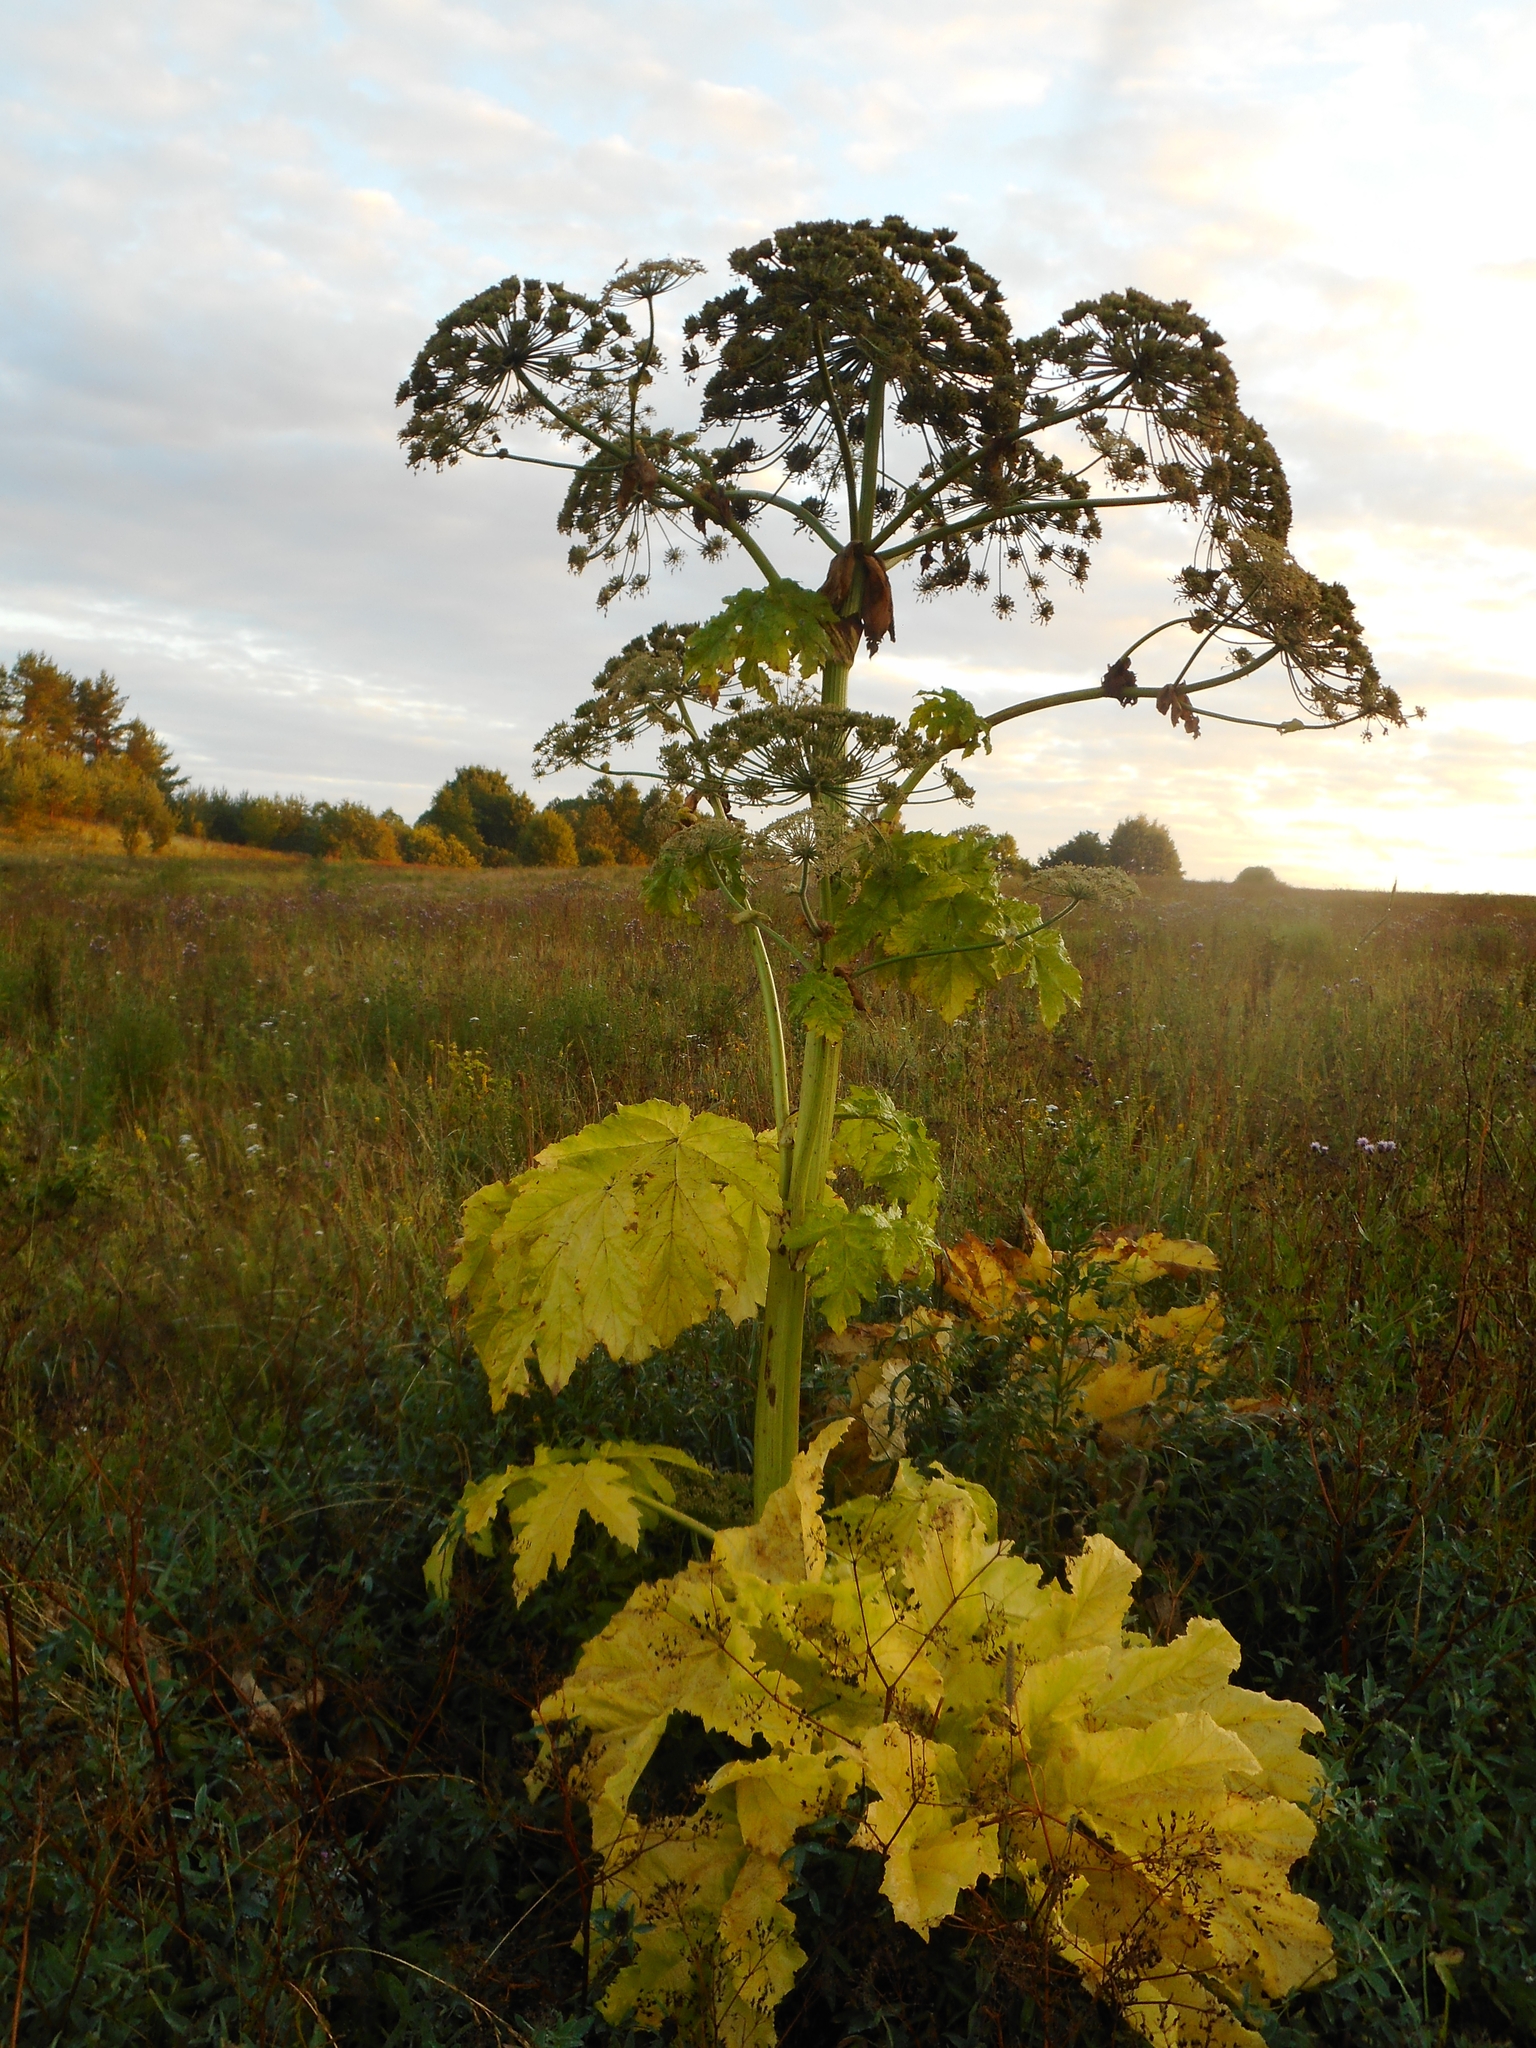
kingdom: Plantae
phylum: Tracheophyta
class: Magnoliopsida
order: Apiales
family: Apiaceae
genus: Heracleum
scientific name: Heracleum sosnowskyi
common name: Sosnowsky's hogweed
